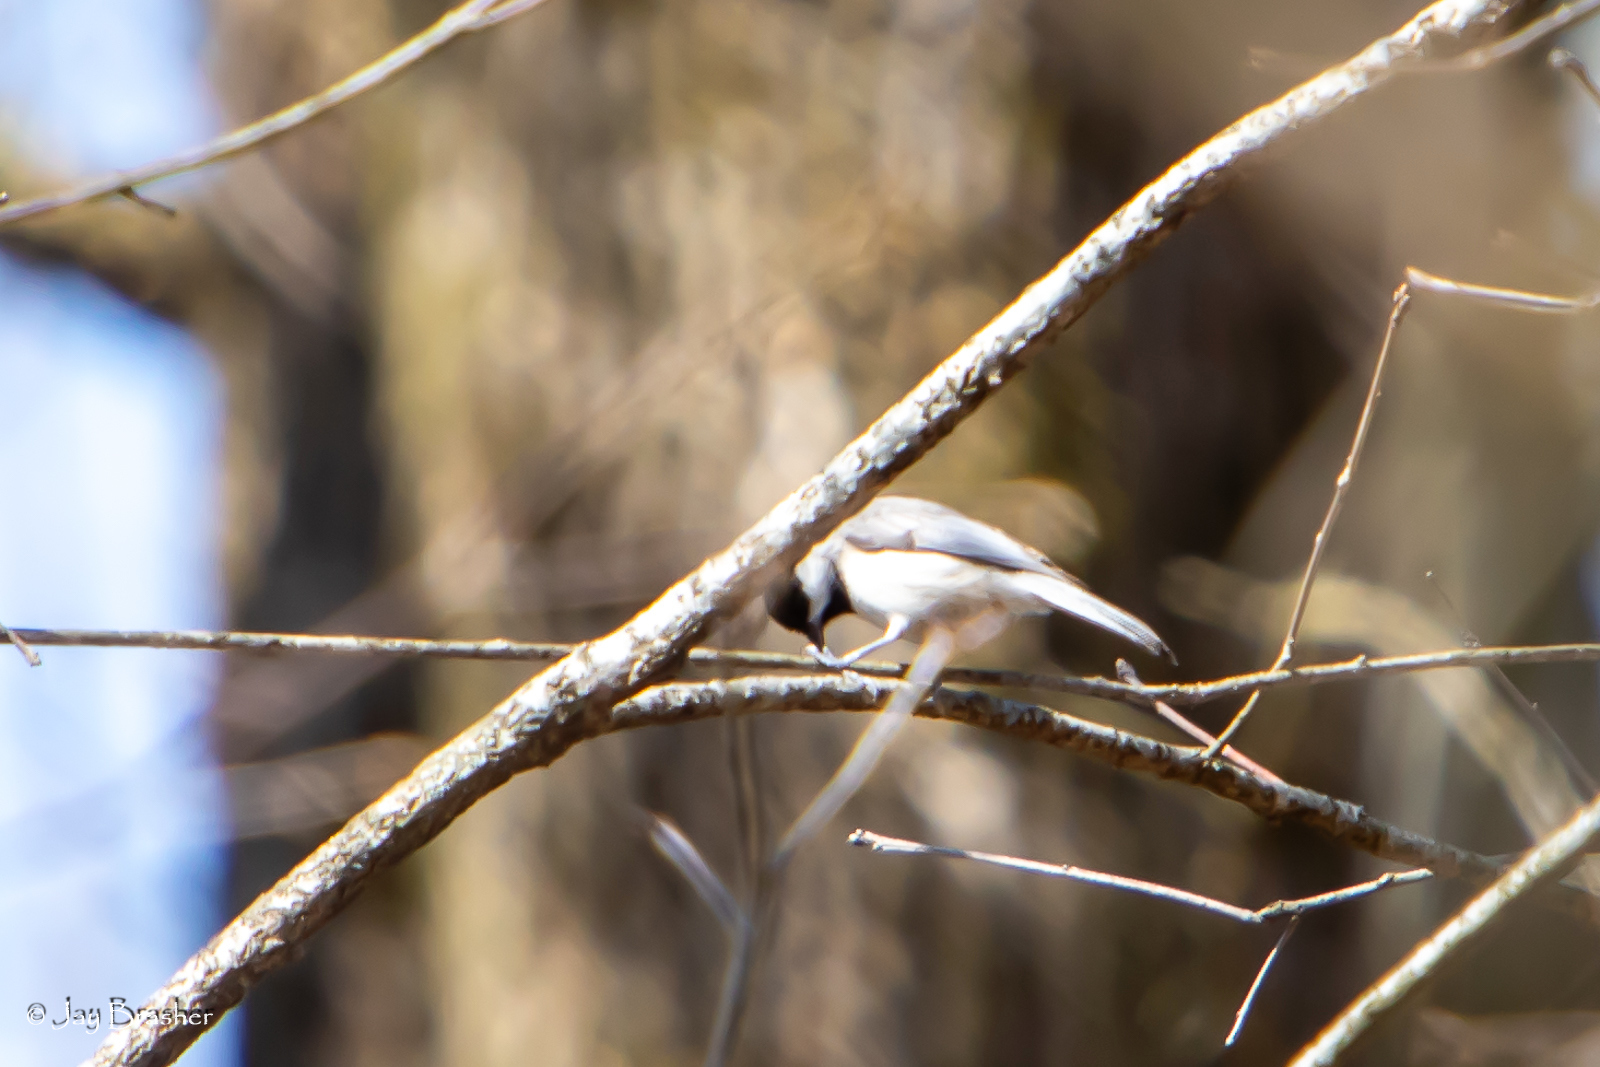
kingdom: Animalia
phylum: Chordata
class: Aves
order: Passeriformes
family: Paridae
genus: Poecile
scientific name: Poecile carolinensis
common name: Carolina chickadee
